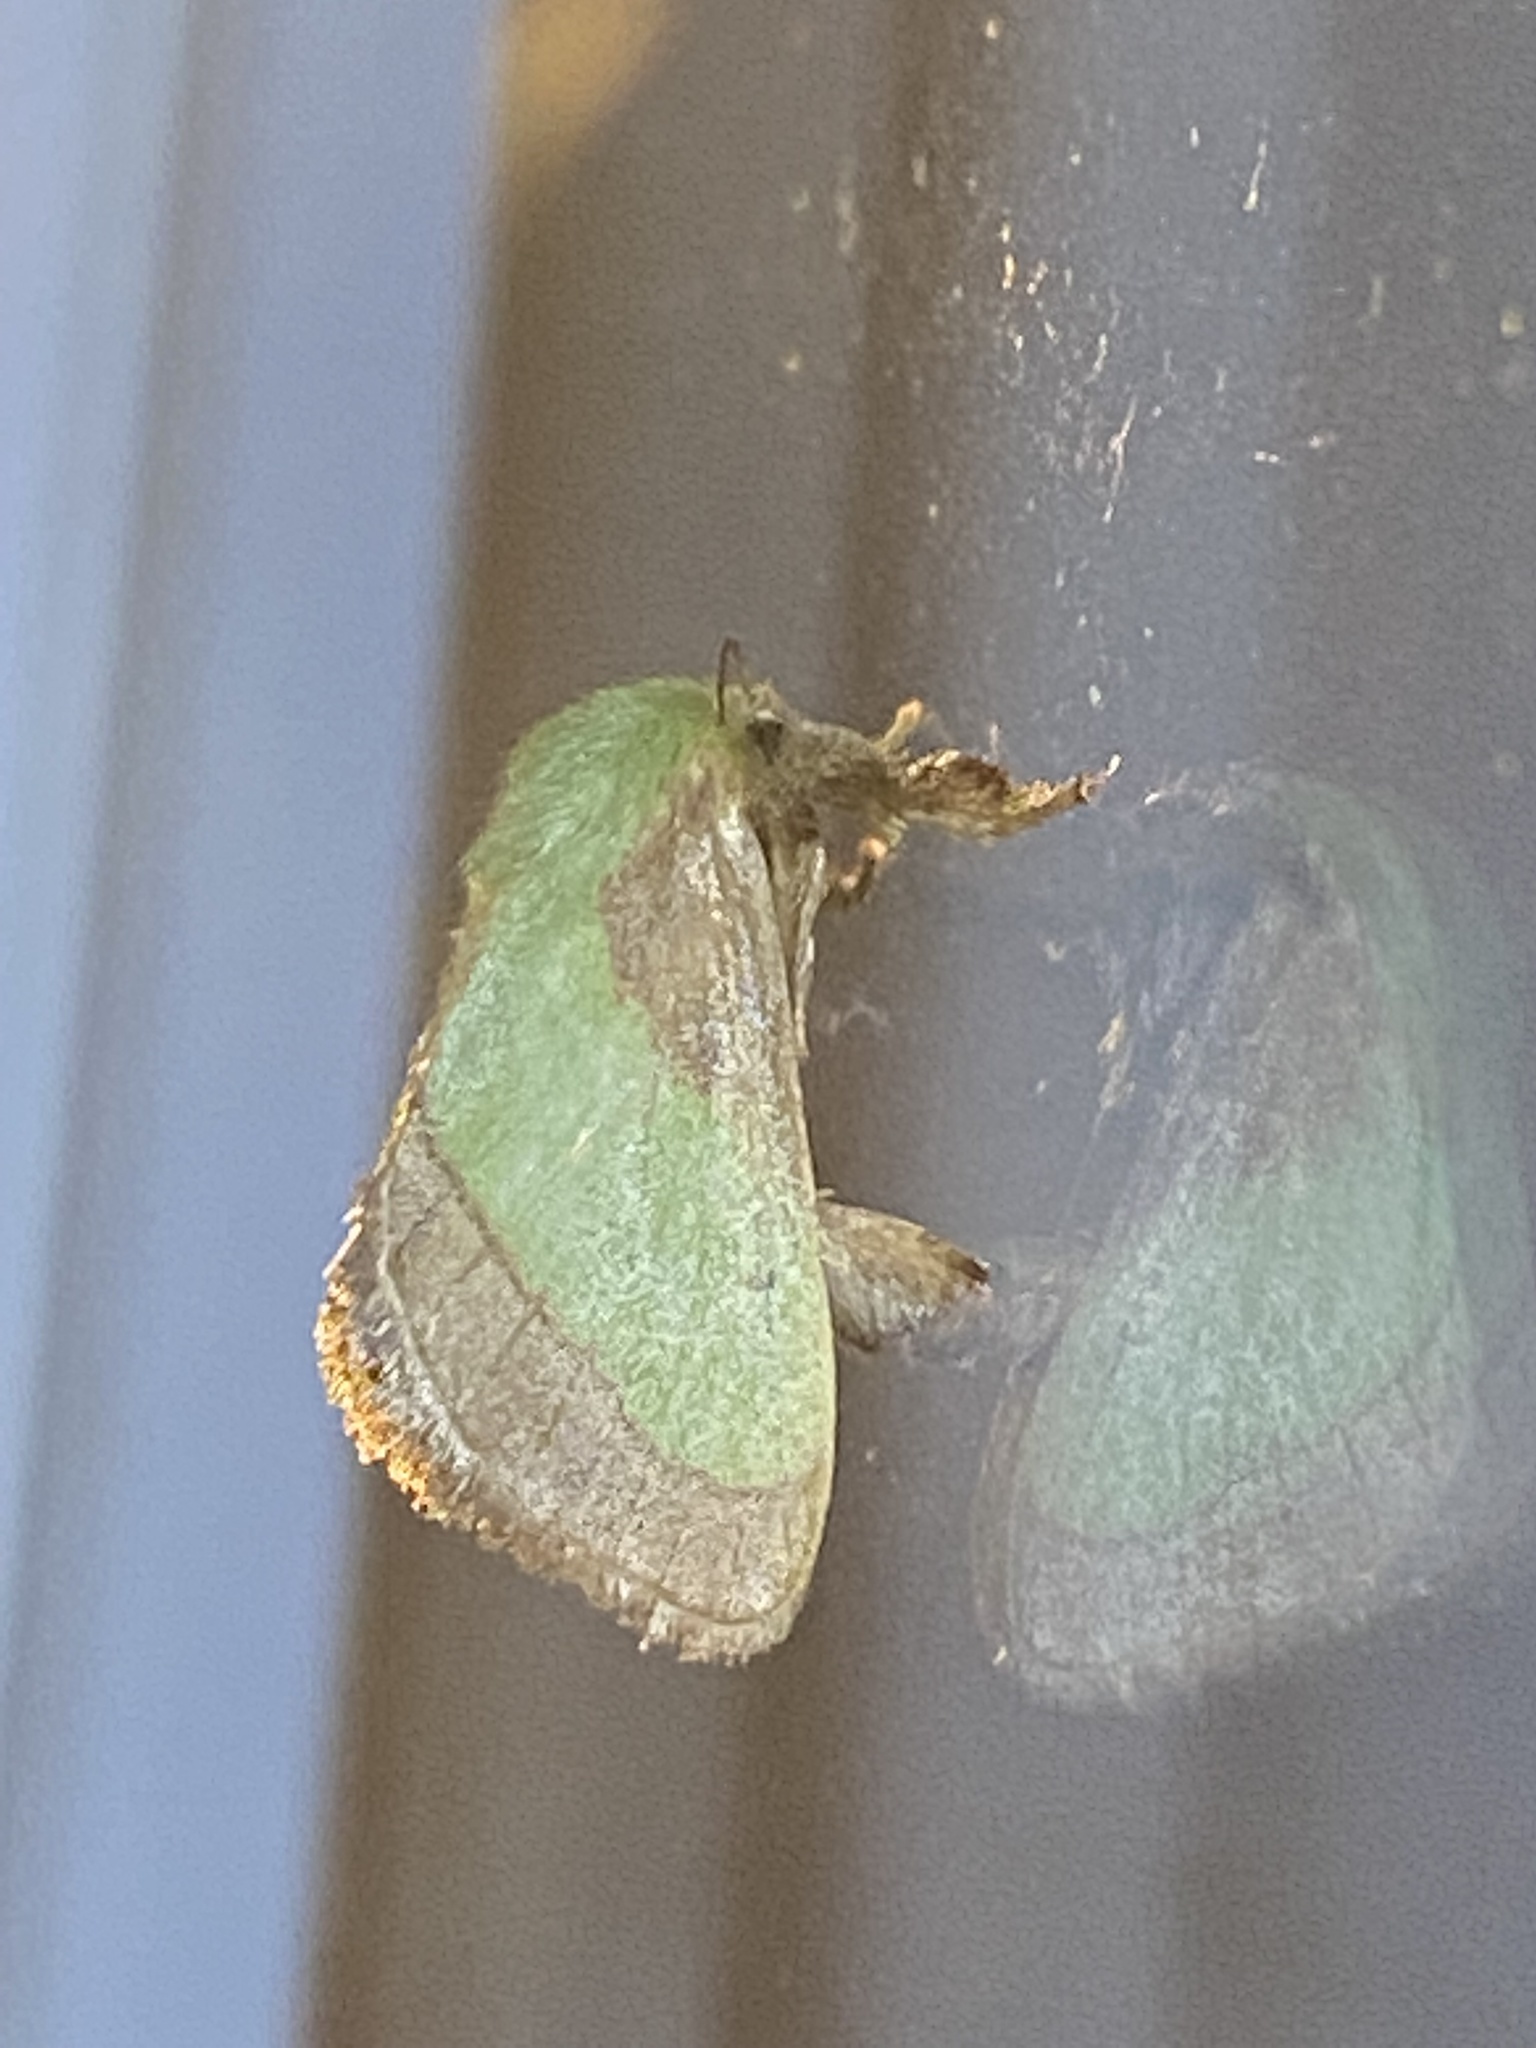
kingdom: Animalia
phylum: Arthropoda
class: Insecta
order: Lepidoptera
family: Limacodidae
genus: Parasa
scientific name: Parasa chloris
